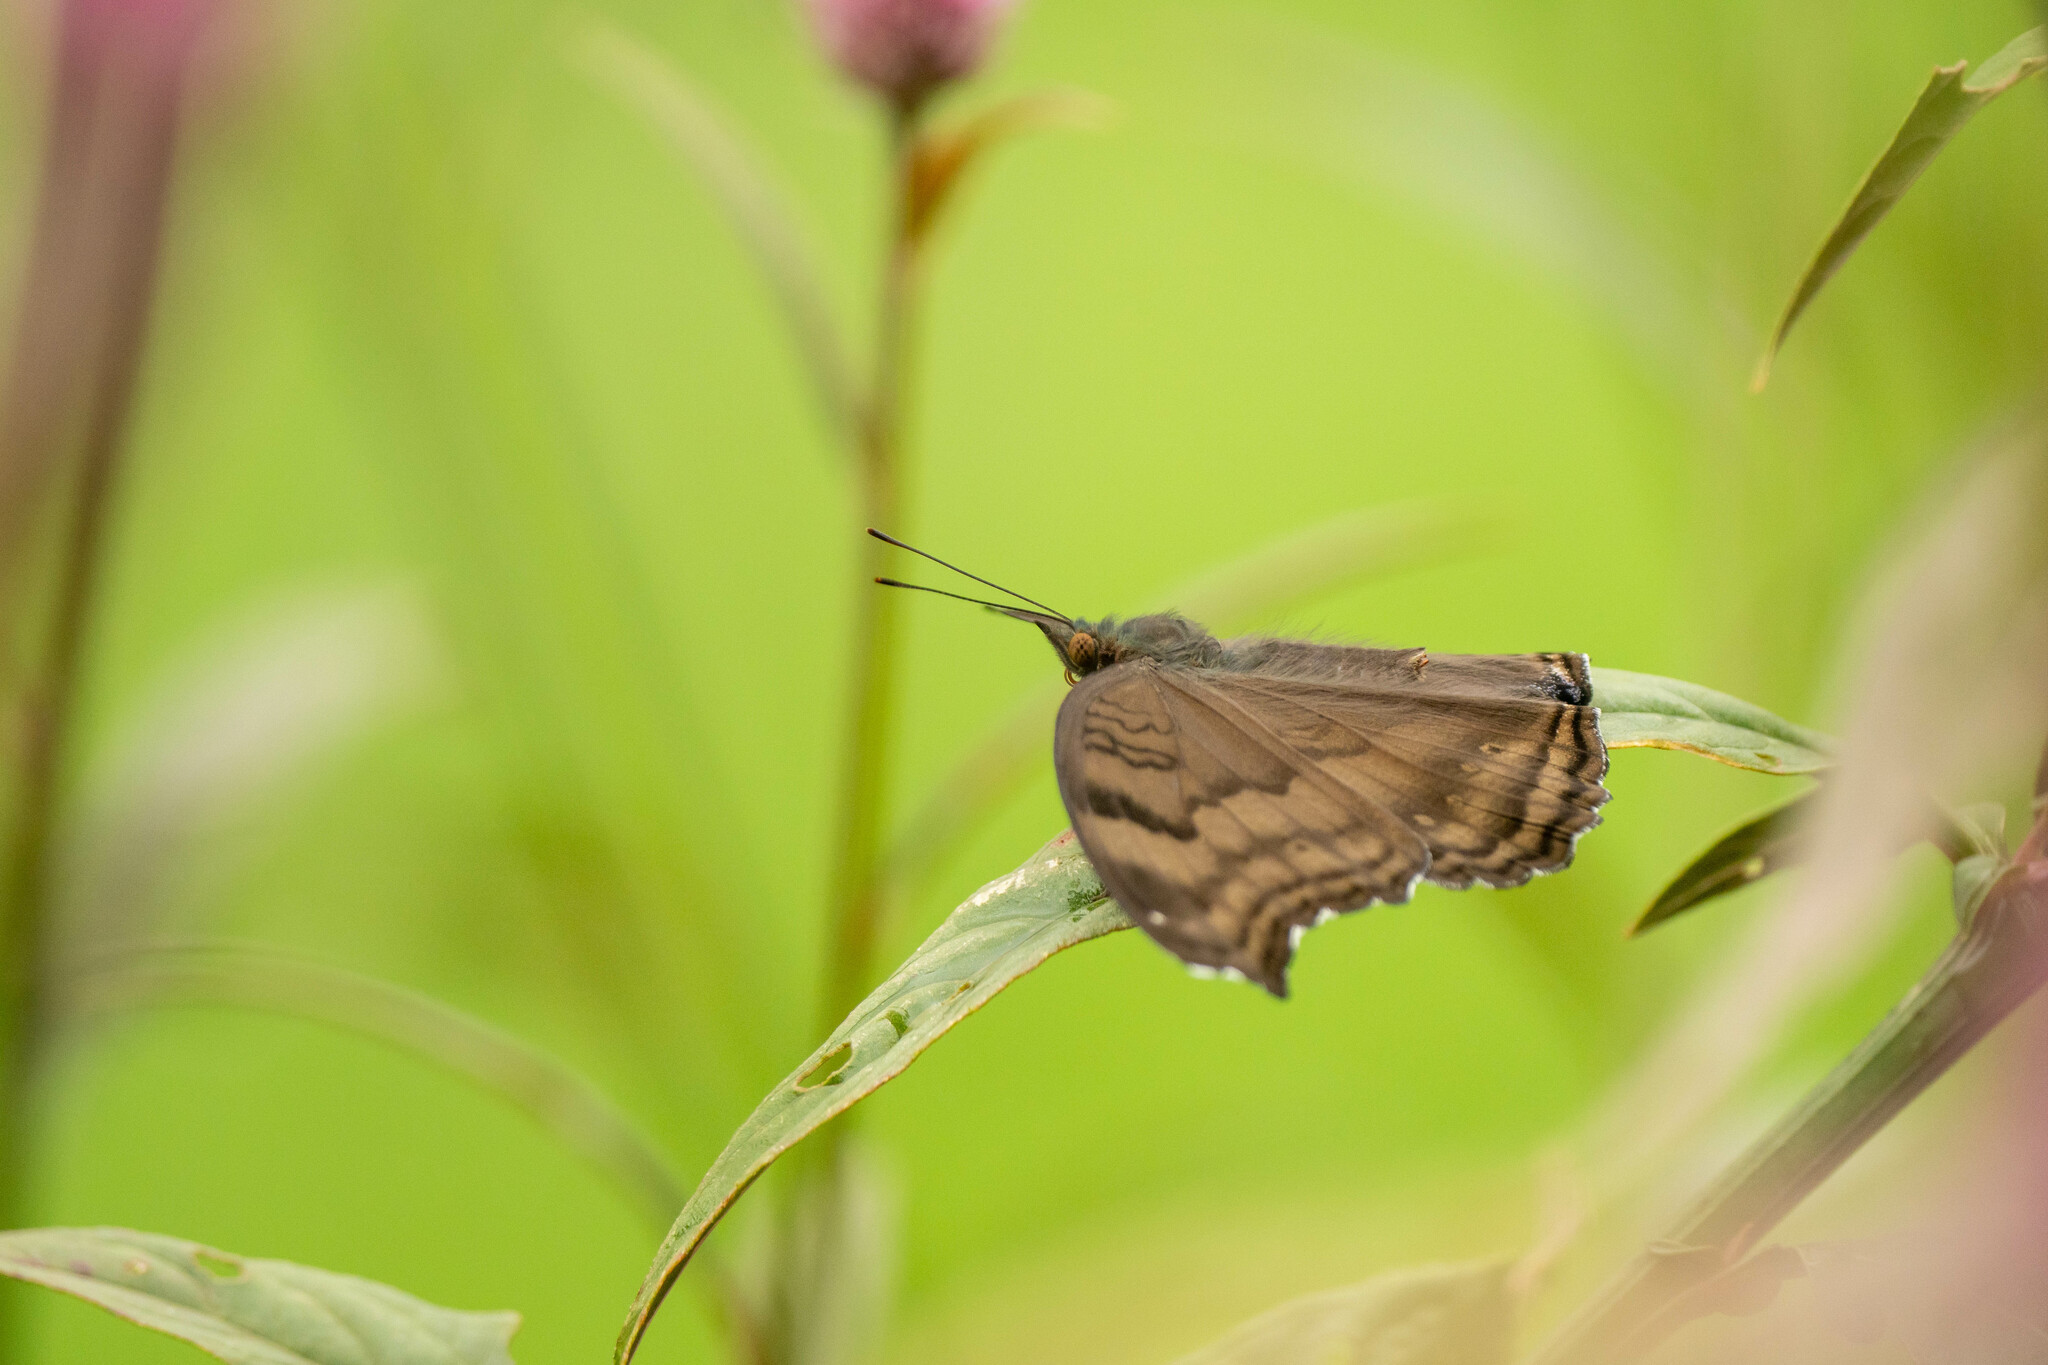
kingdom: Animalia
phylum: Arthropoda
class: Insecta
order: Lepidoptera
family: Nymphalidae
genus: Junonia
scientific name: Junonia iphita
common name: Chocolate pansy
